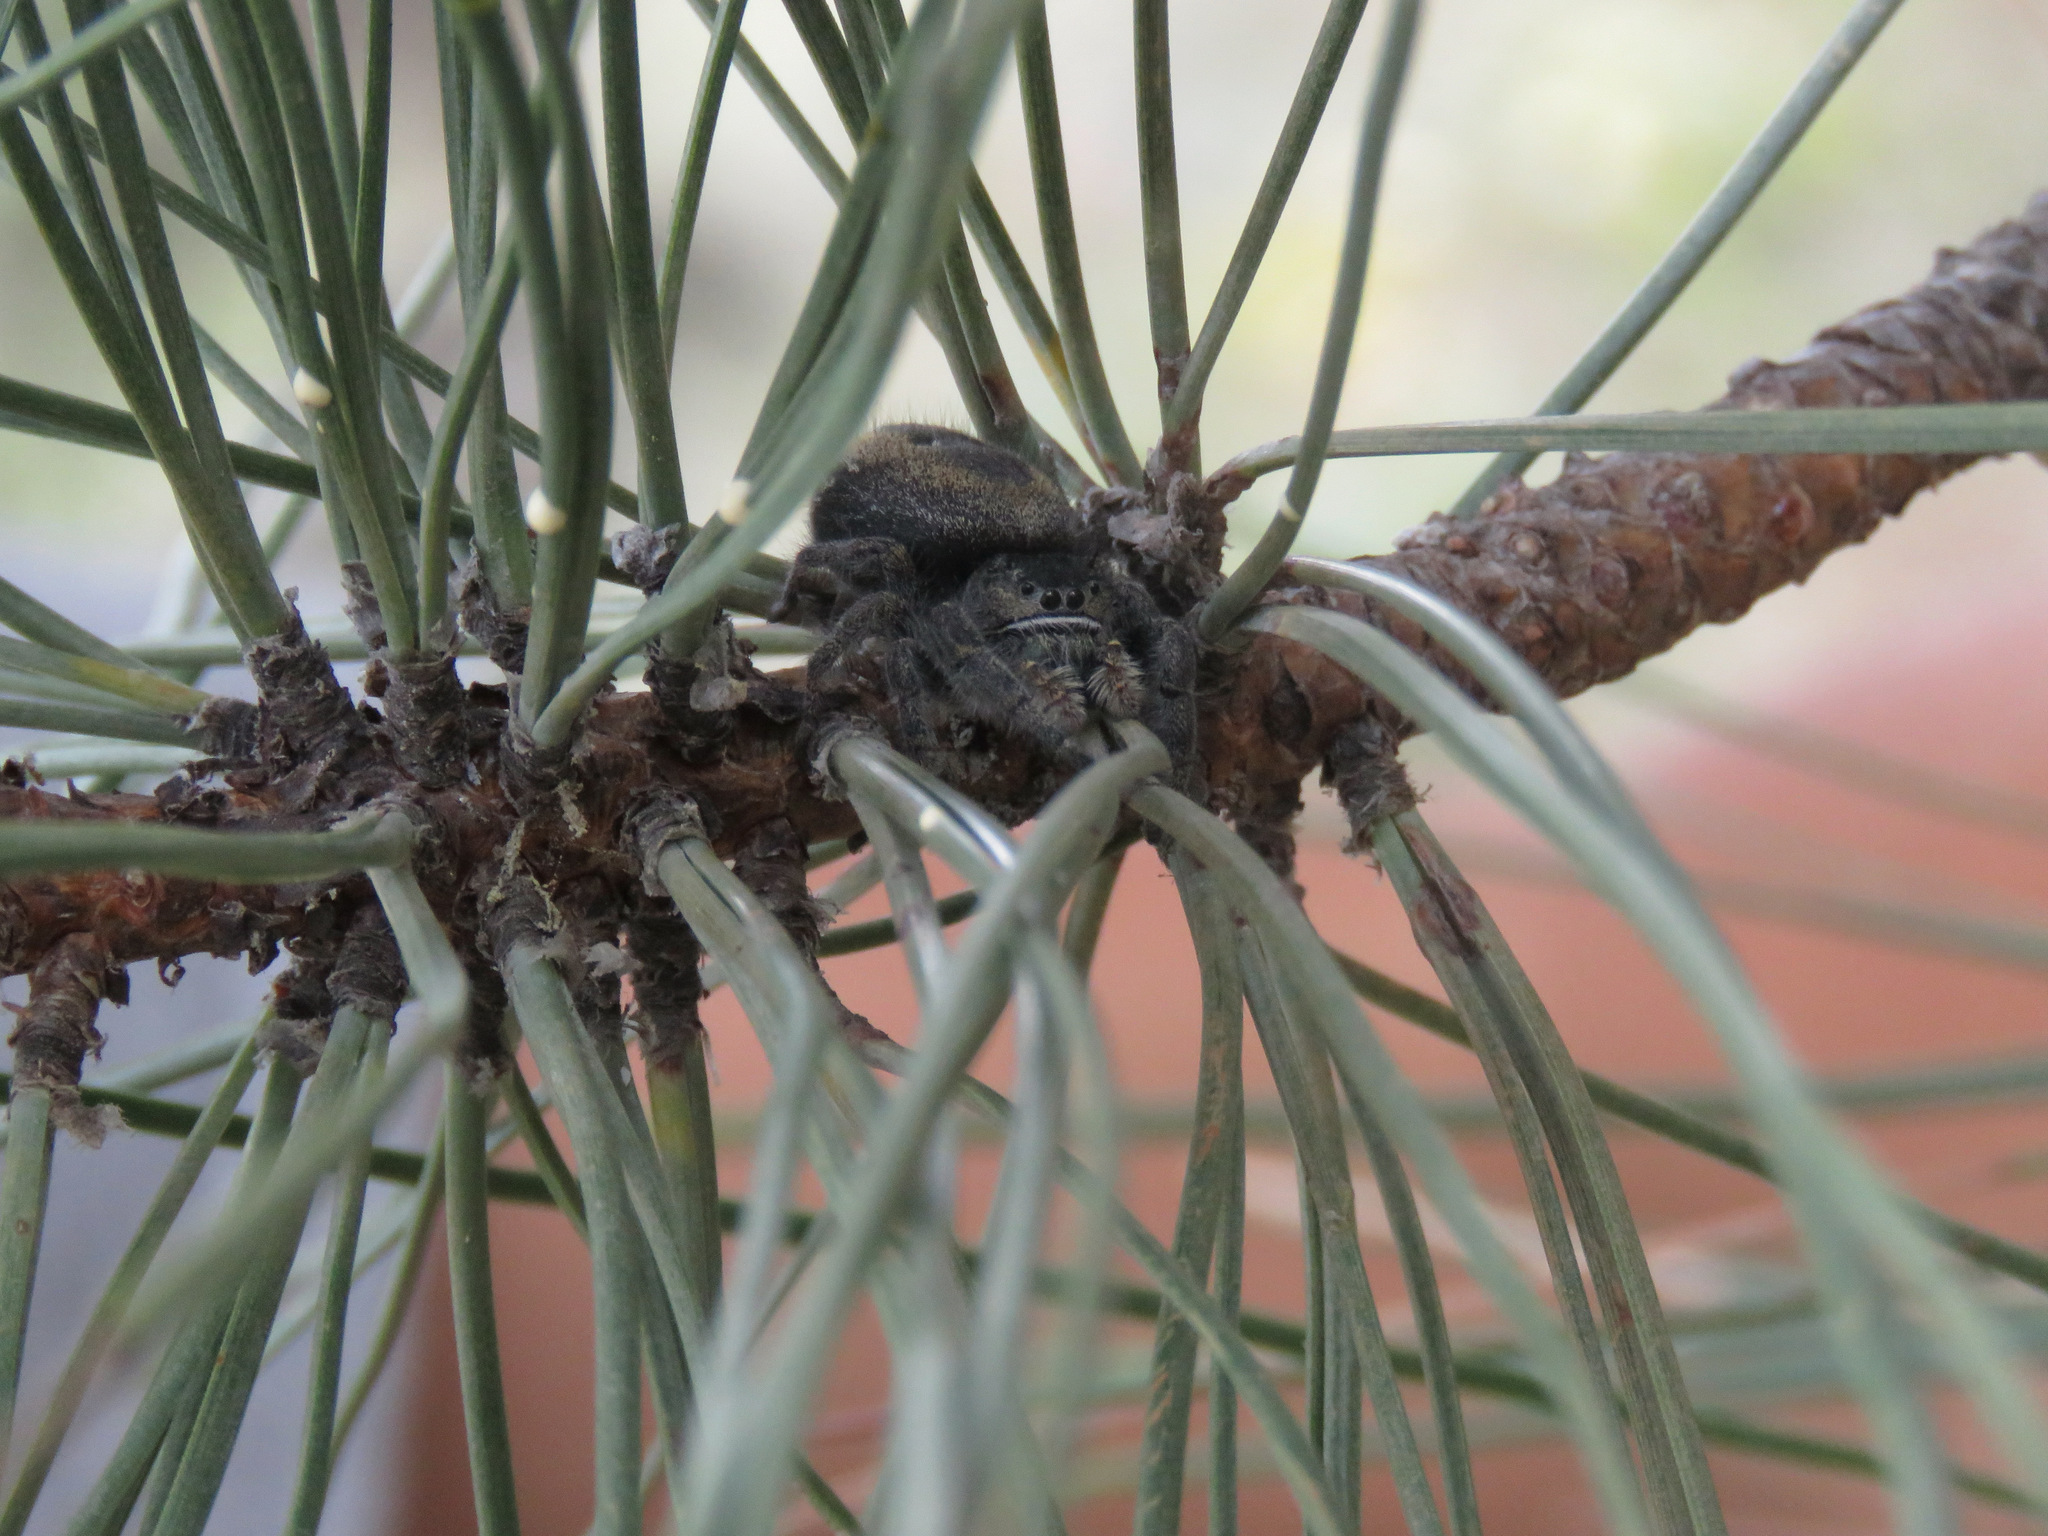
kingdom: Animalia
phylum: Arthropoda
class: Arachnida
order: Araneae
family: Salticidae
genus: Phidippus
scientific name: Phidippus johnsoni
